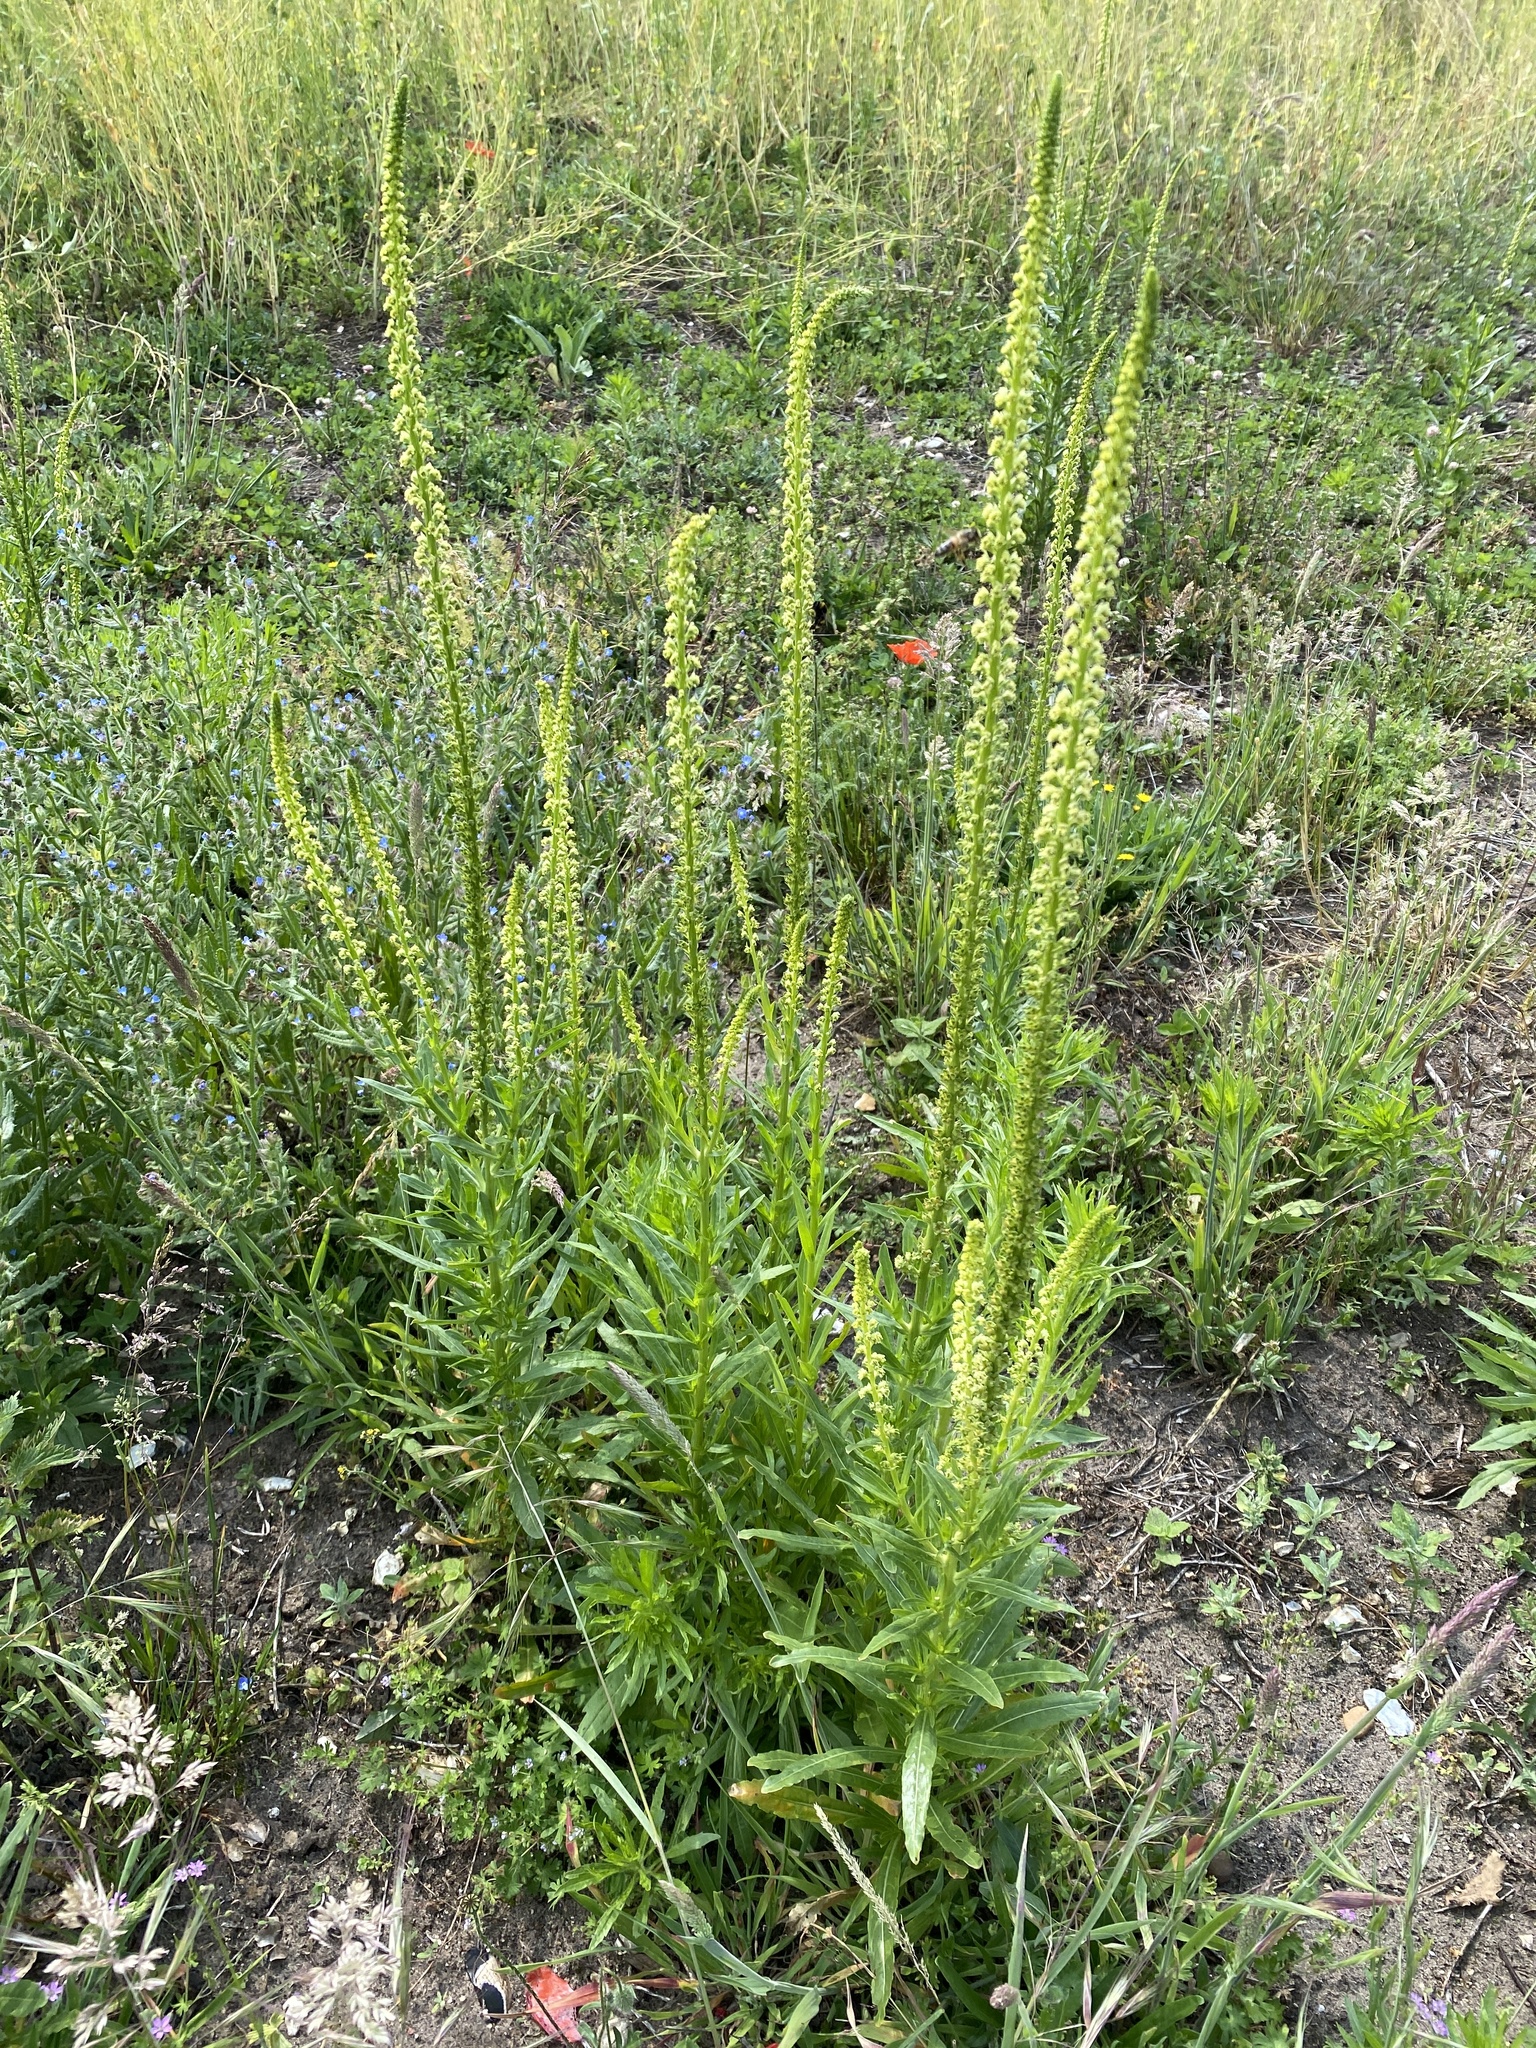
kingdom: Plantae
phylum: Tracheophyta
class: Magnoliopsida
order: Brassicales
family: Resedaceae
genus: Reseda
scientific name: Reseda luteola
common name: Weld
